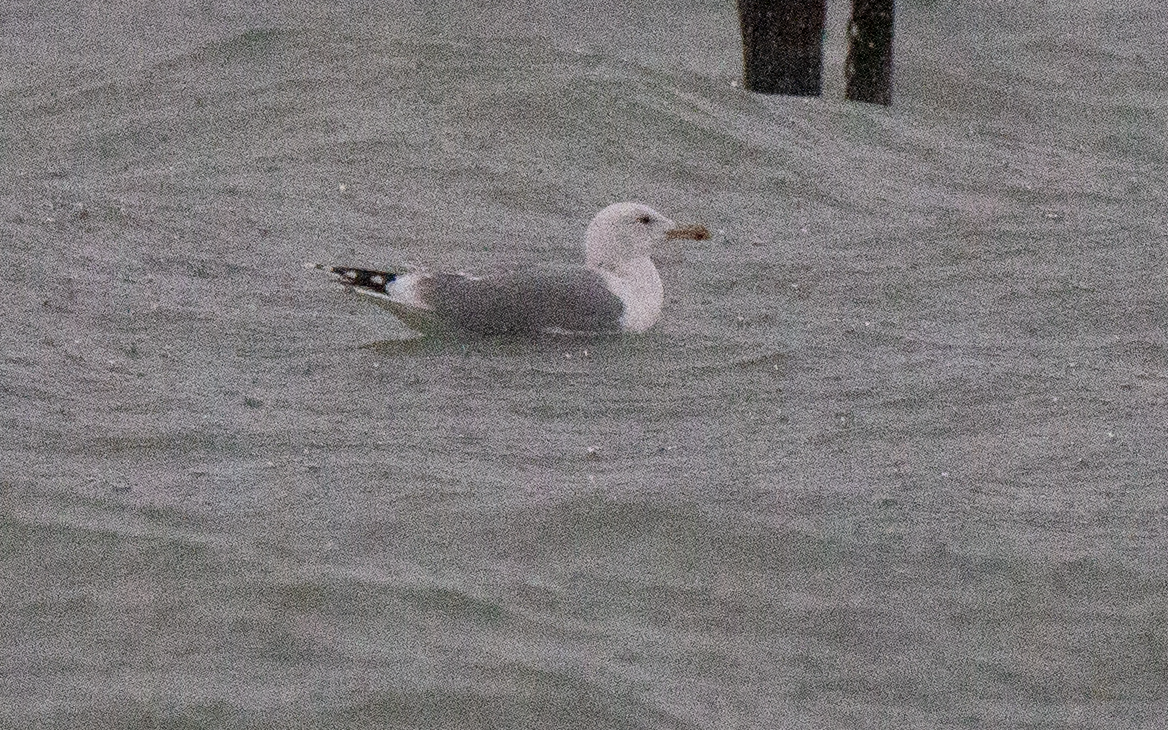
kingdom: Animalia
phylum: Chordata
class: Aves
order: Charadriiformes
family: Laridae
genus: Larus
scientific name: Larus cachinnans
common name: Caspian gull
